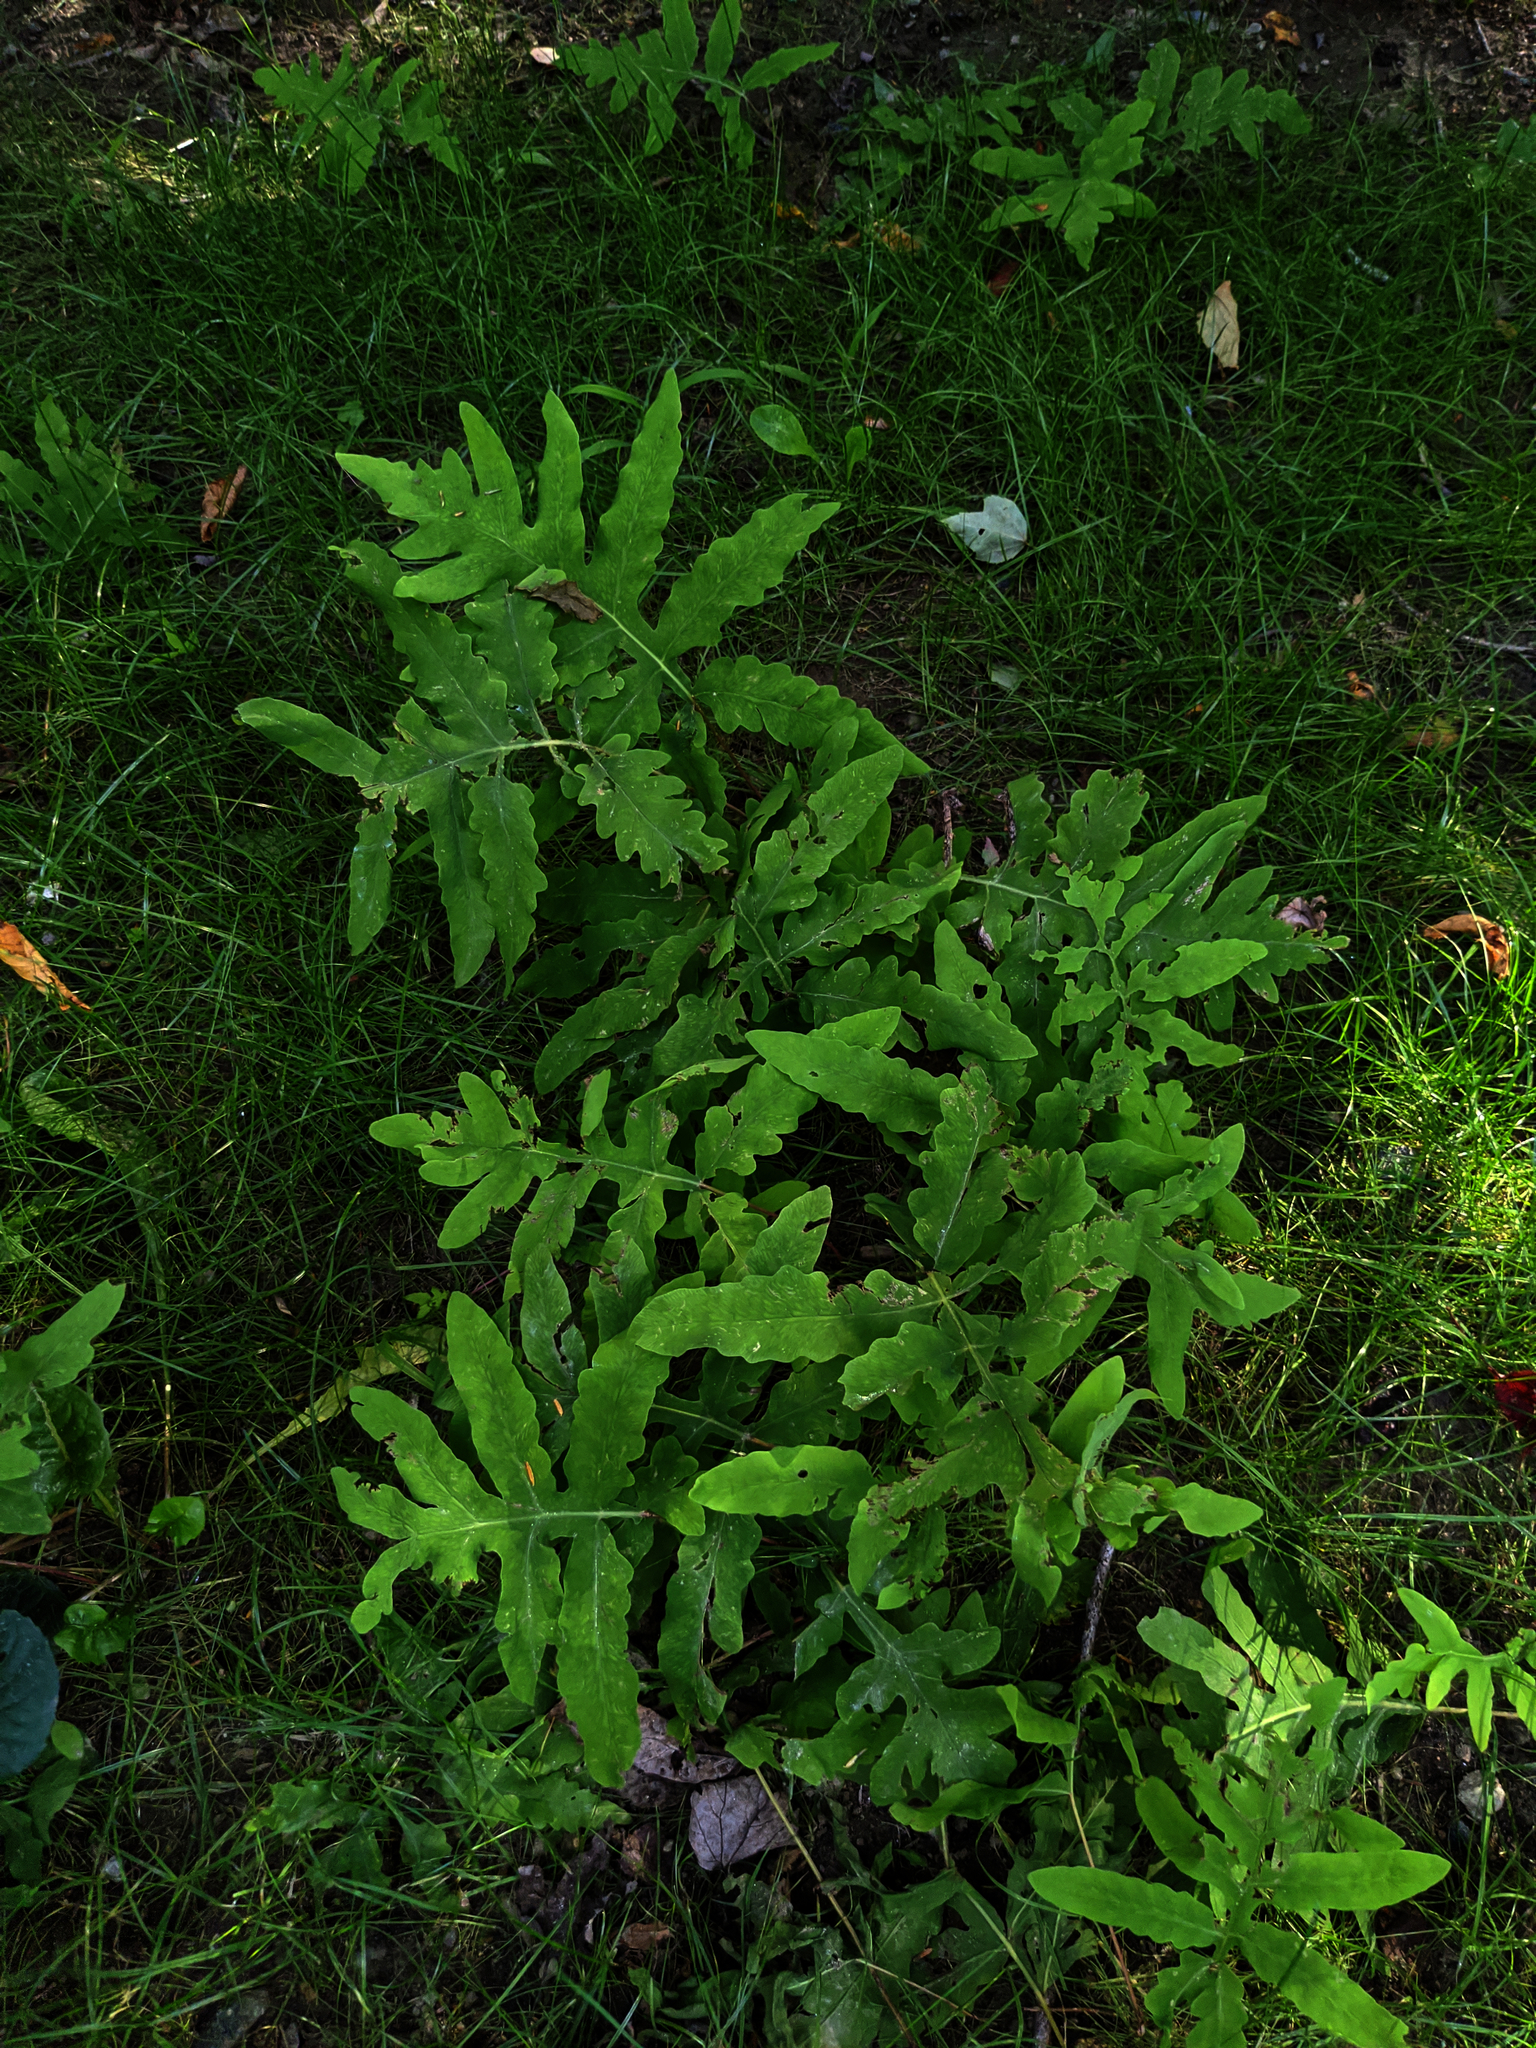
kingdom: Plantae
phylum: Tracheophyta
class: Polypodiopsida
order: Polypodiales
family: Onocleaceae
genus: Onoclea
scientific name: Onoclea sensibilis
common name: Sensitive fern
